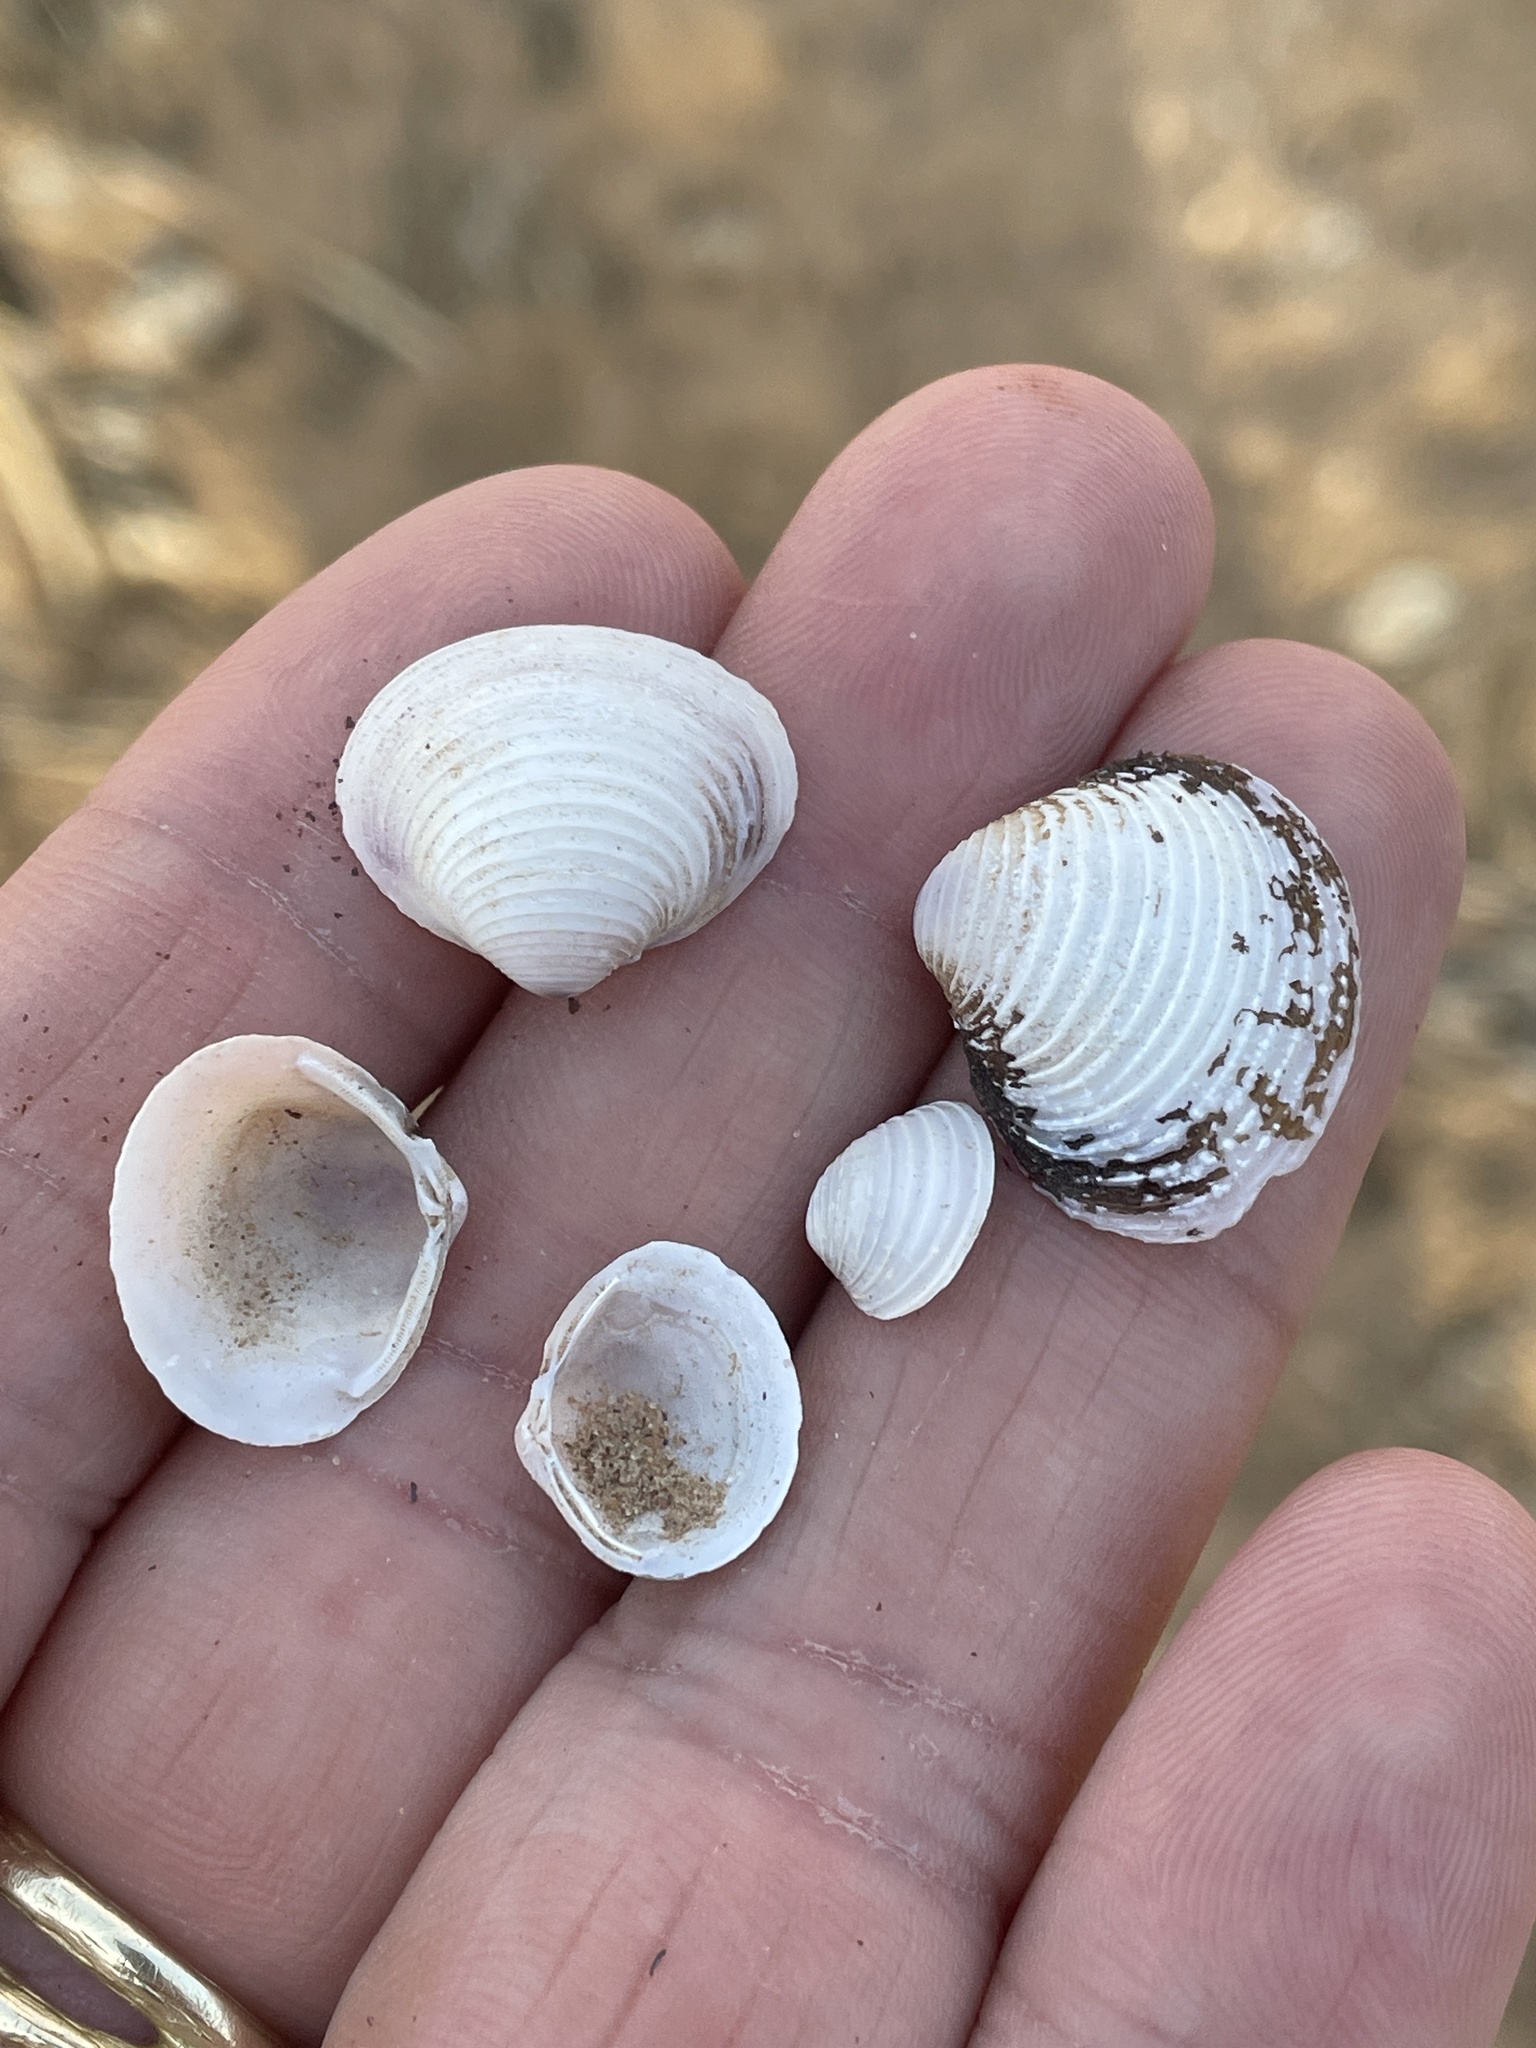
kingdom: Animalia
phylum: Mollusca
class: Bivalvia
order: Venerida
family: Cyrenidae
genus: Corbicula
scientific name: Corbicula fluminea
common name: Asian clam
